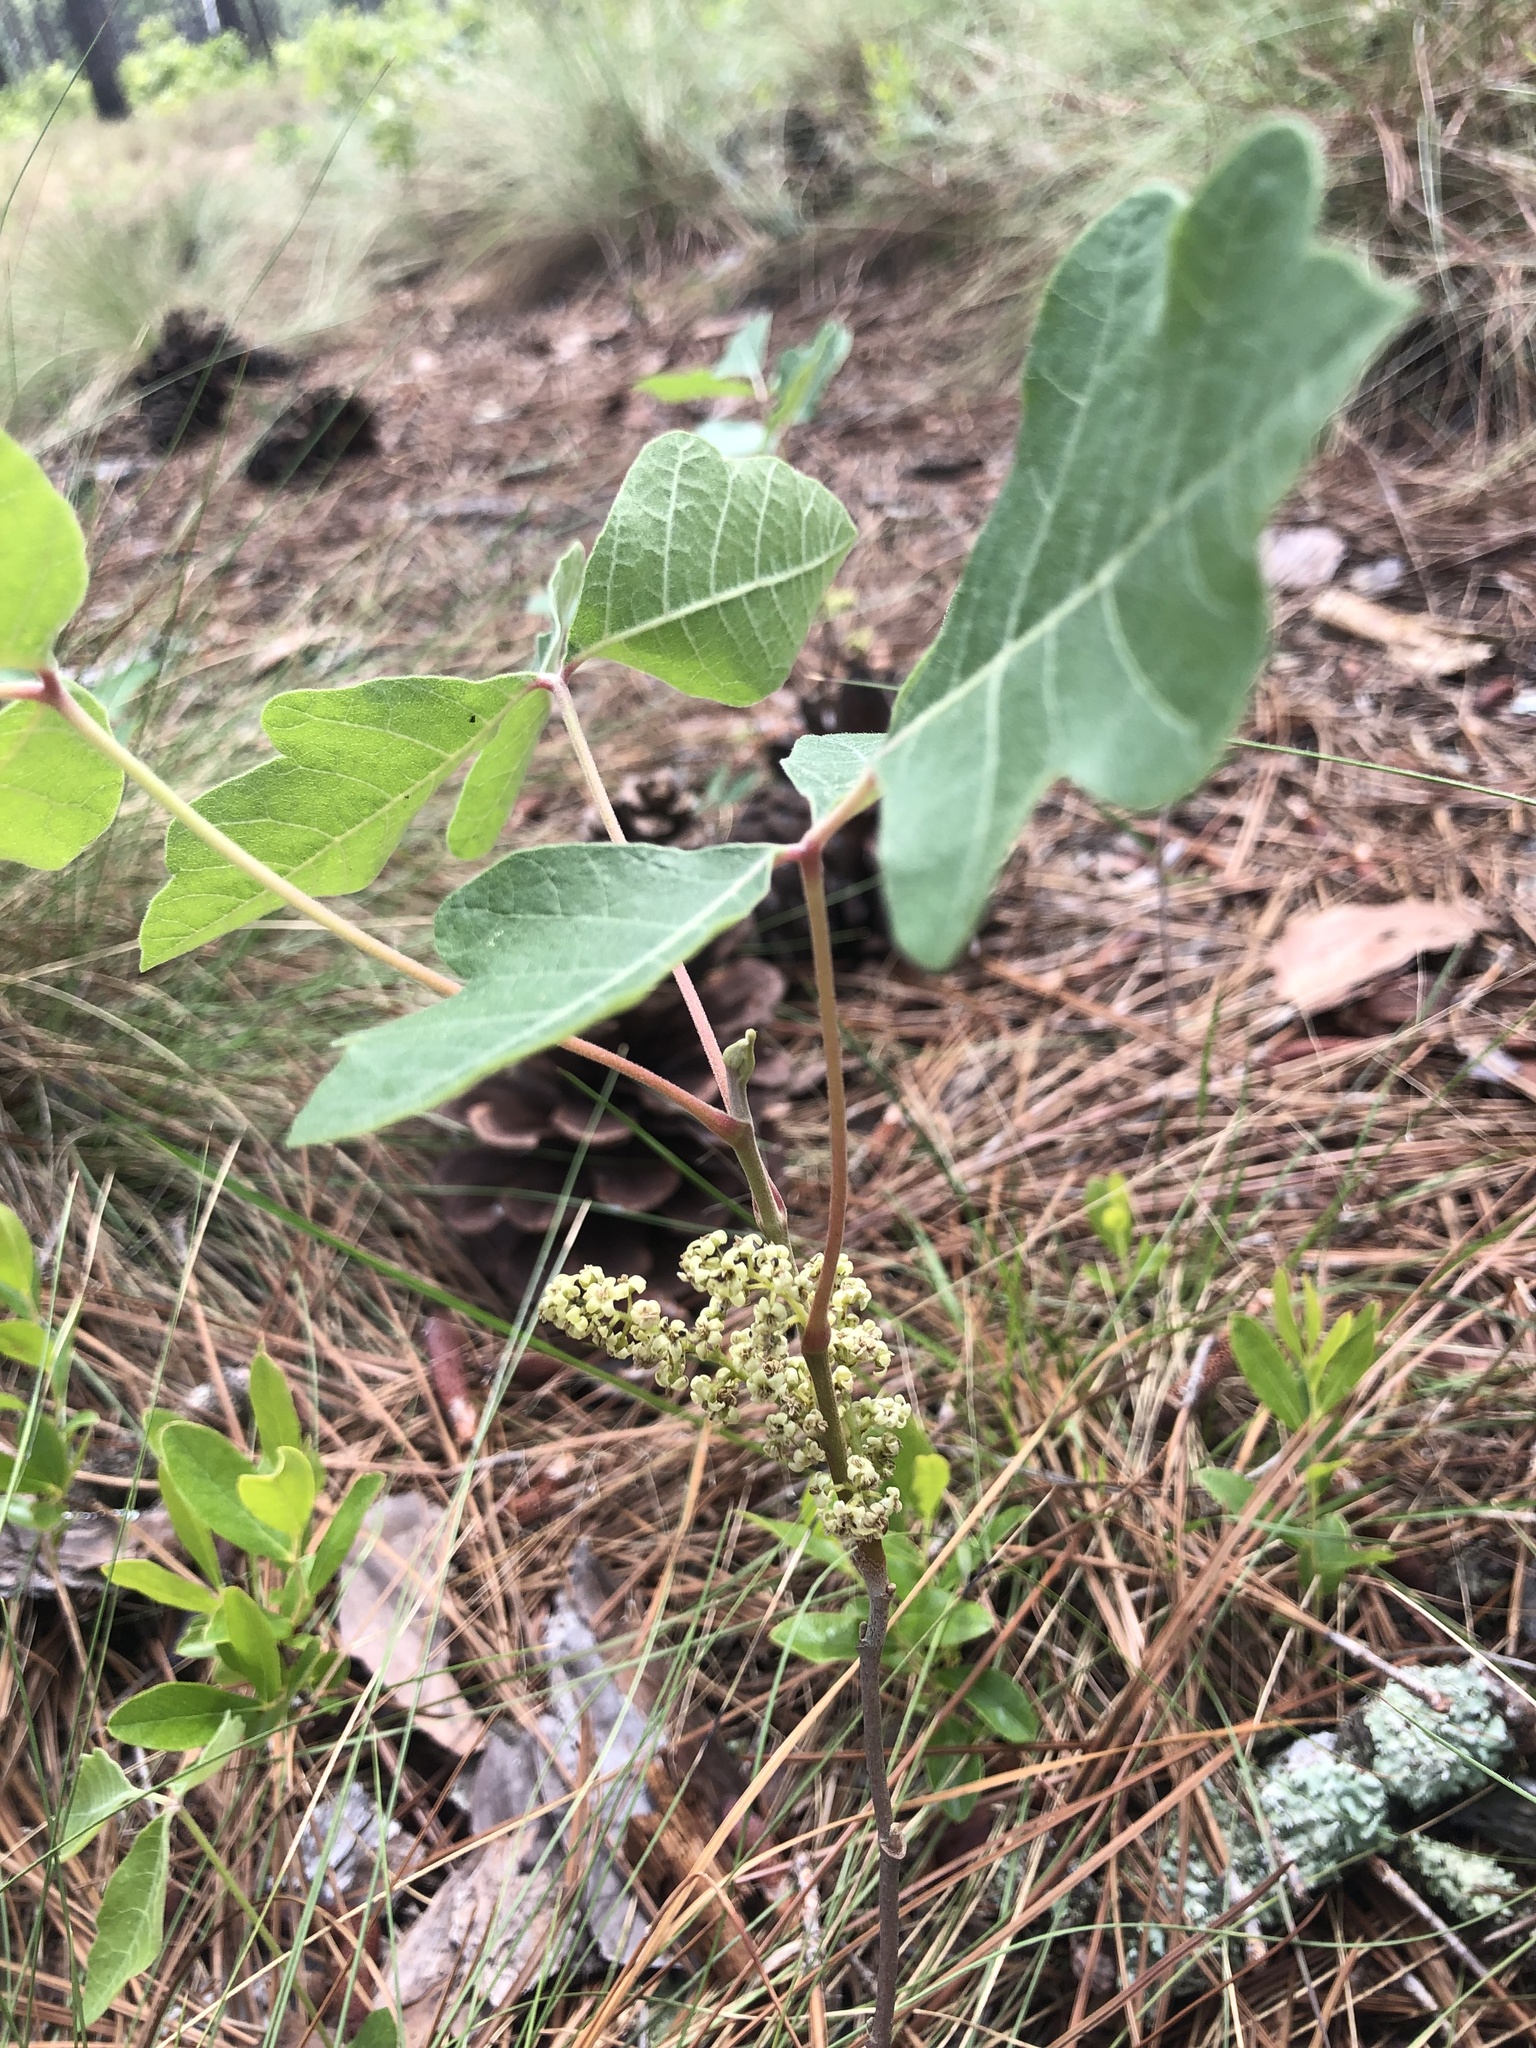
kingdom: Plantae
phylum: Tracheophyta
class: Magnoliopsida
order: Sapindales
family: Anacardiaceae
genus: Toxicodendron
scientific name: Toxicodendron pubescens
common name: Eastern poison-oak
